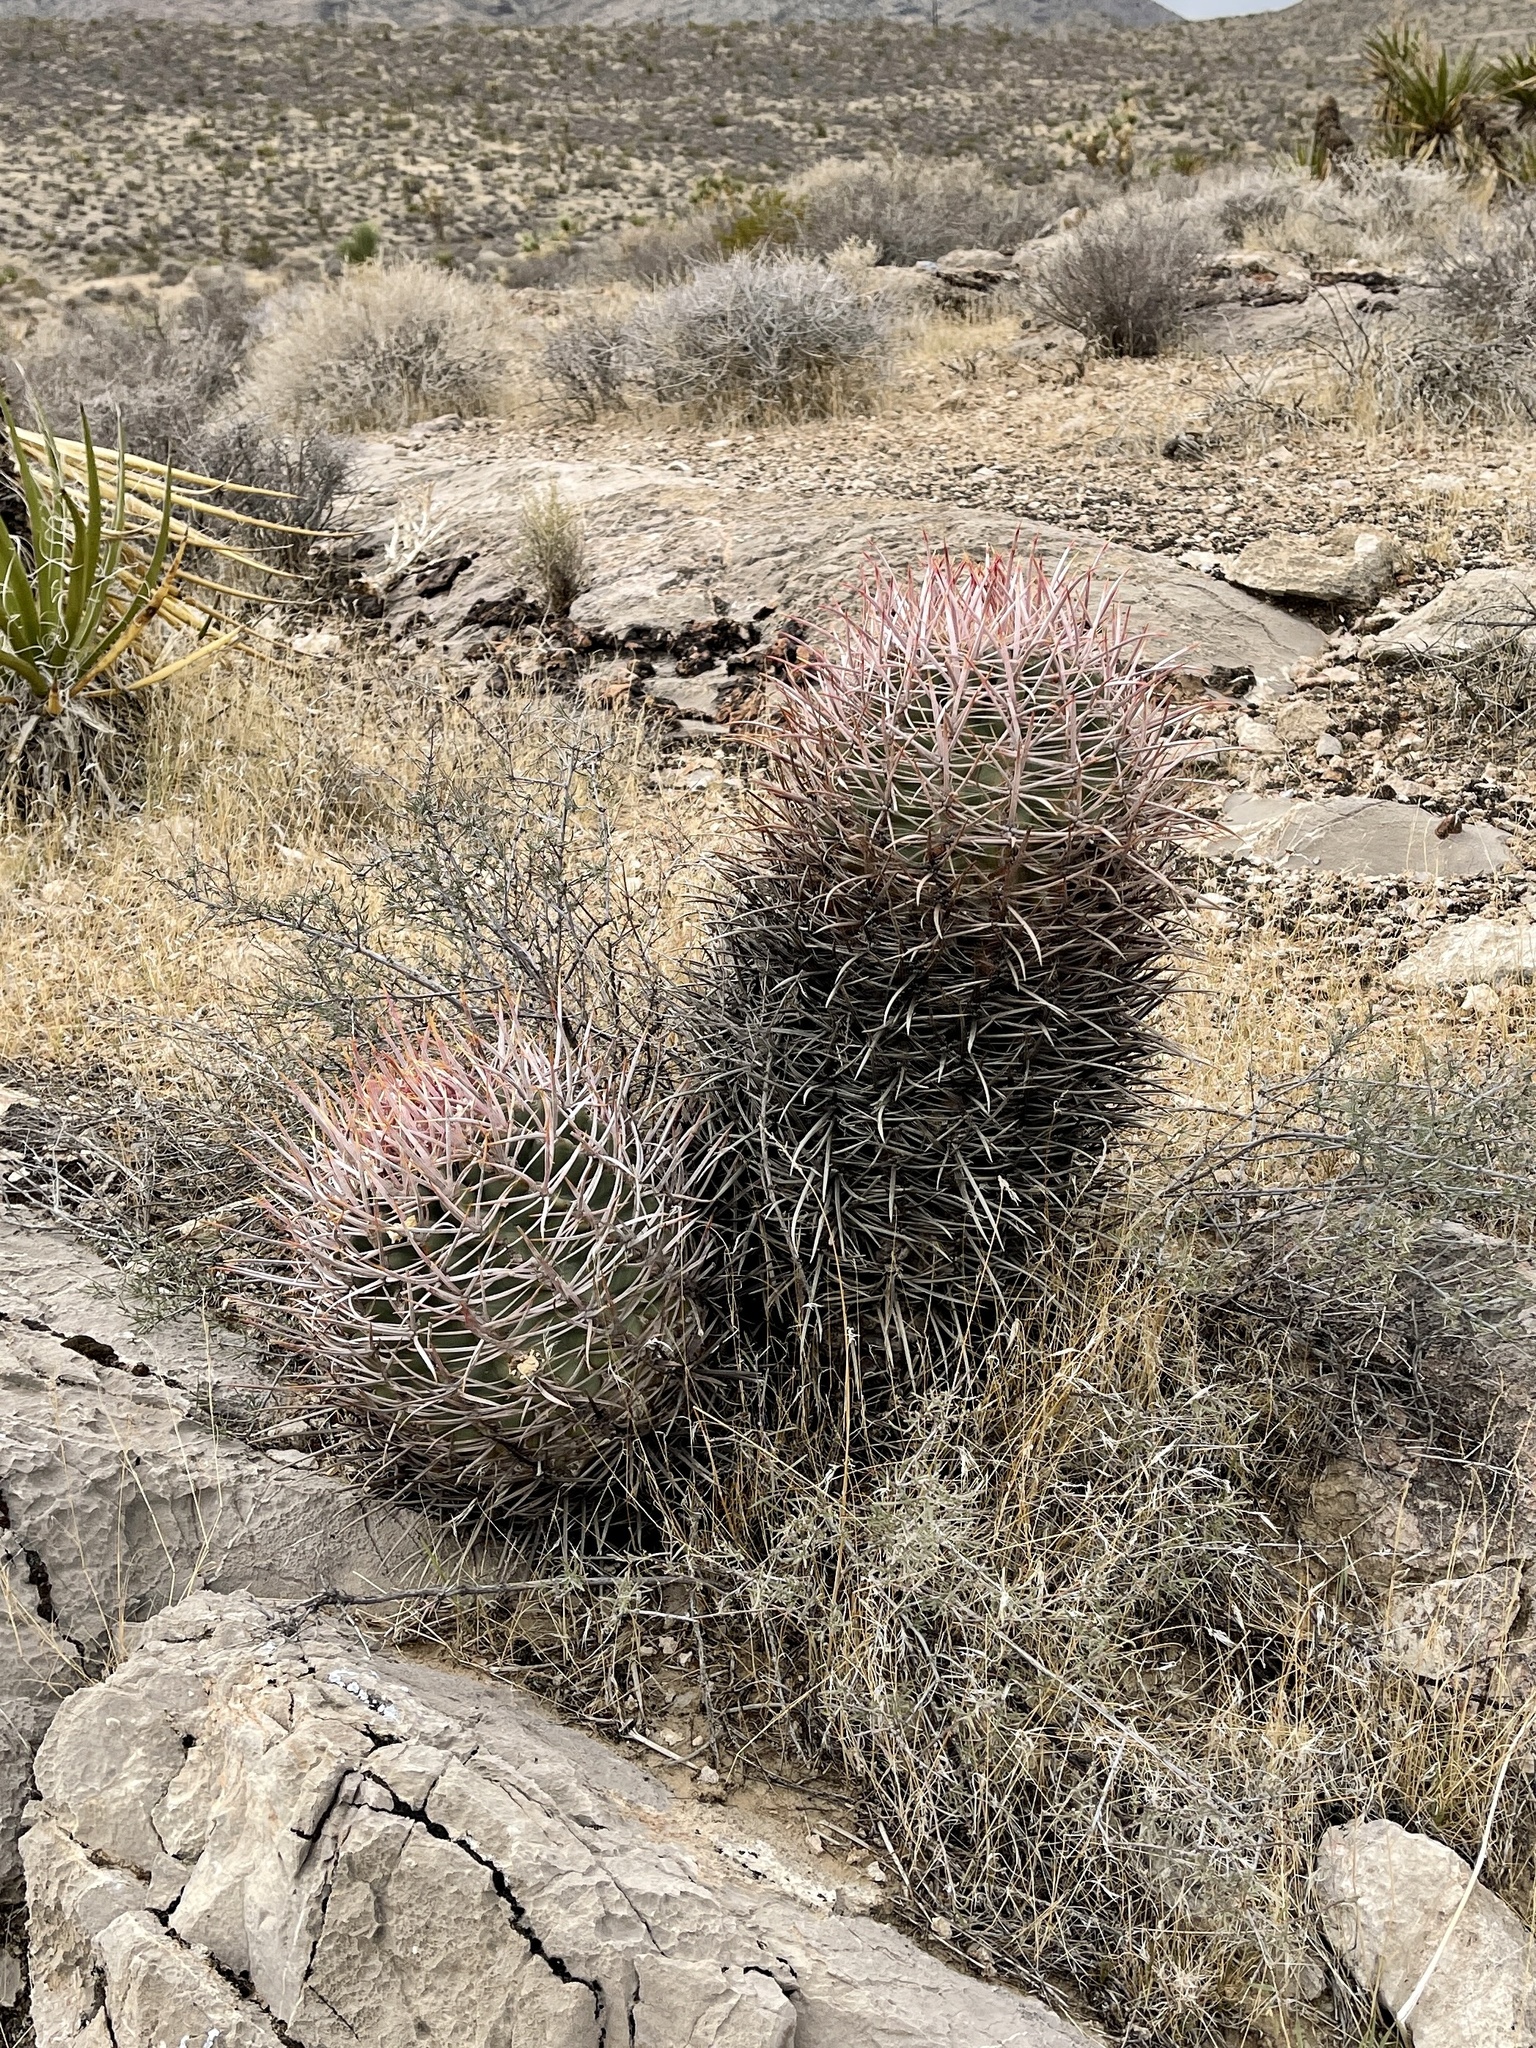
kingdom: Plantae
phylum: Tracheophyta
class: Magnoliopsida
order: Caryophyllales
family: Cactaceae
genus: Echinocactus
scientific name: Echinocactus polycephalus
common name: Cottontop cactus
